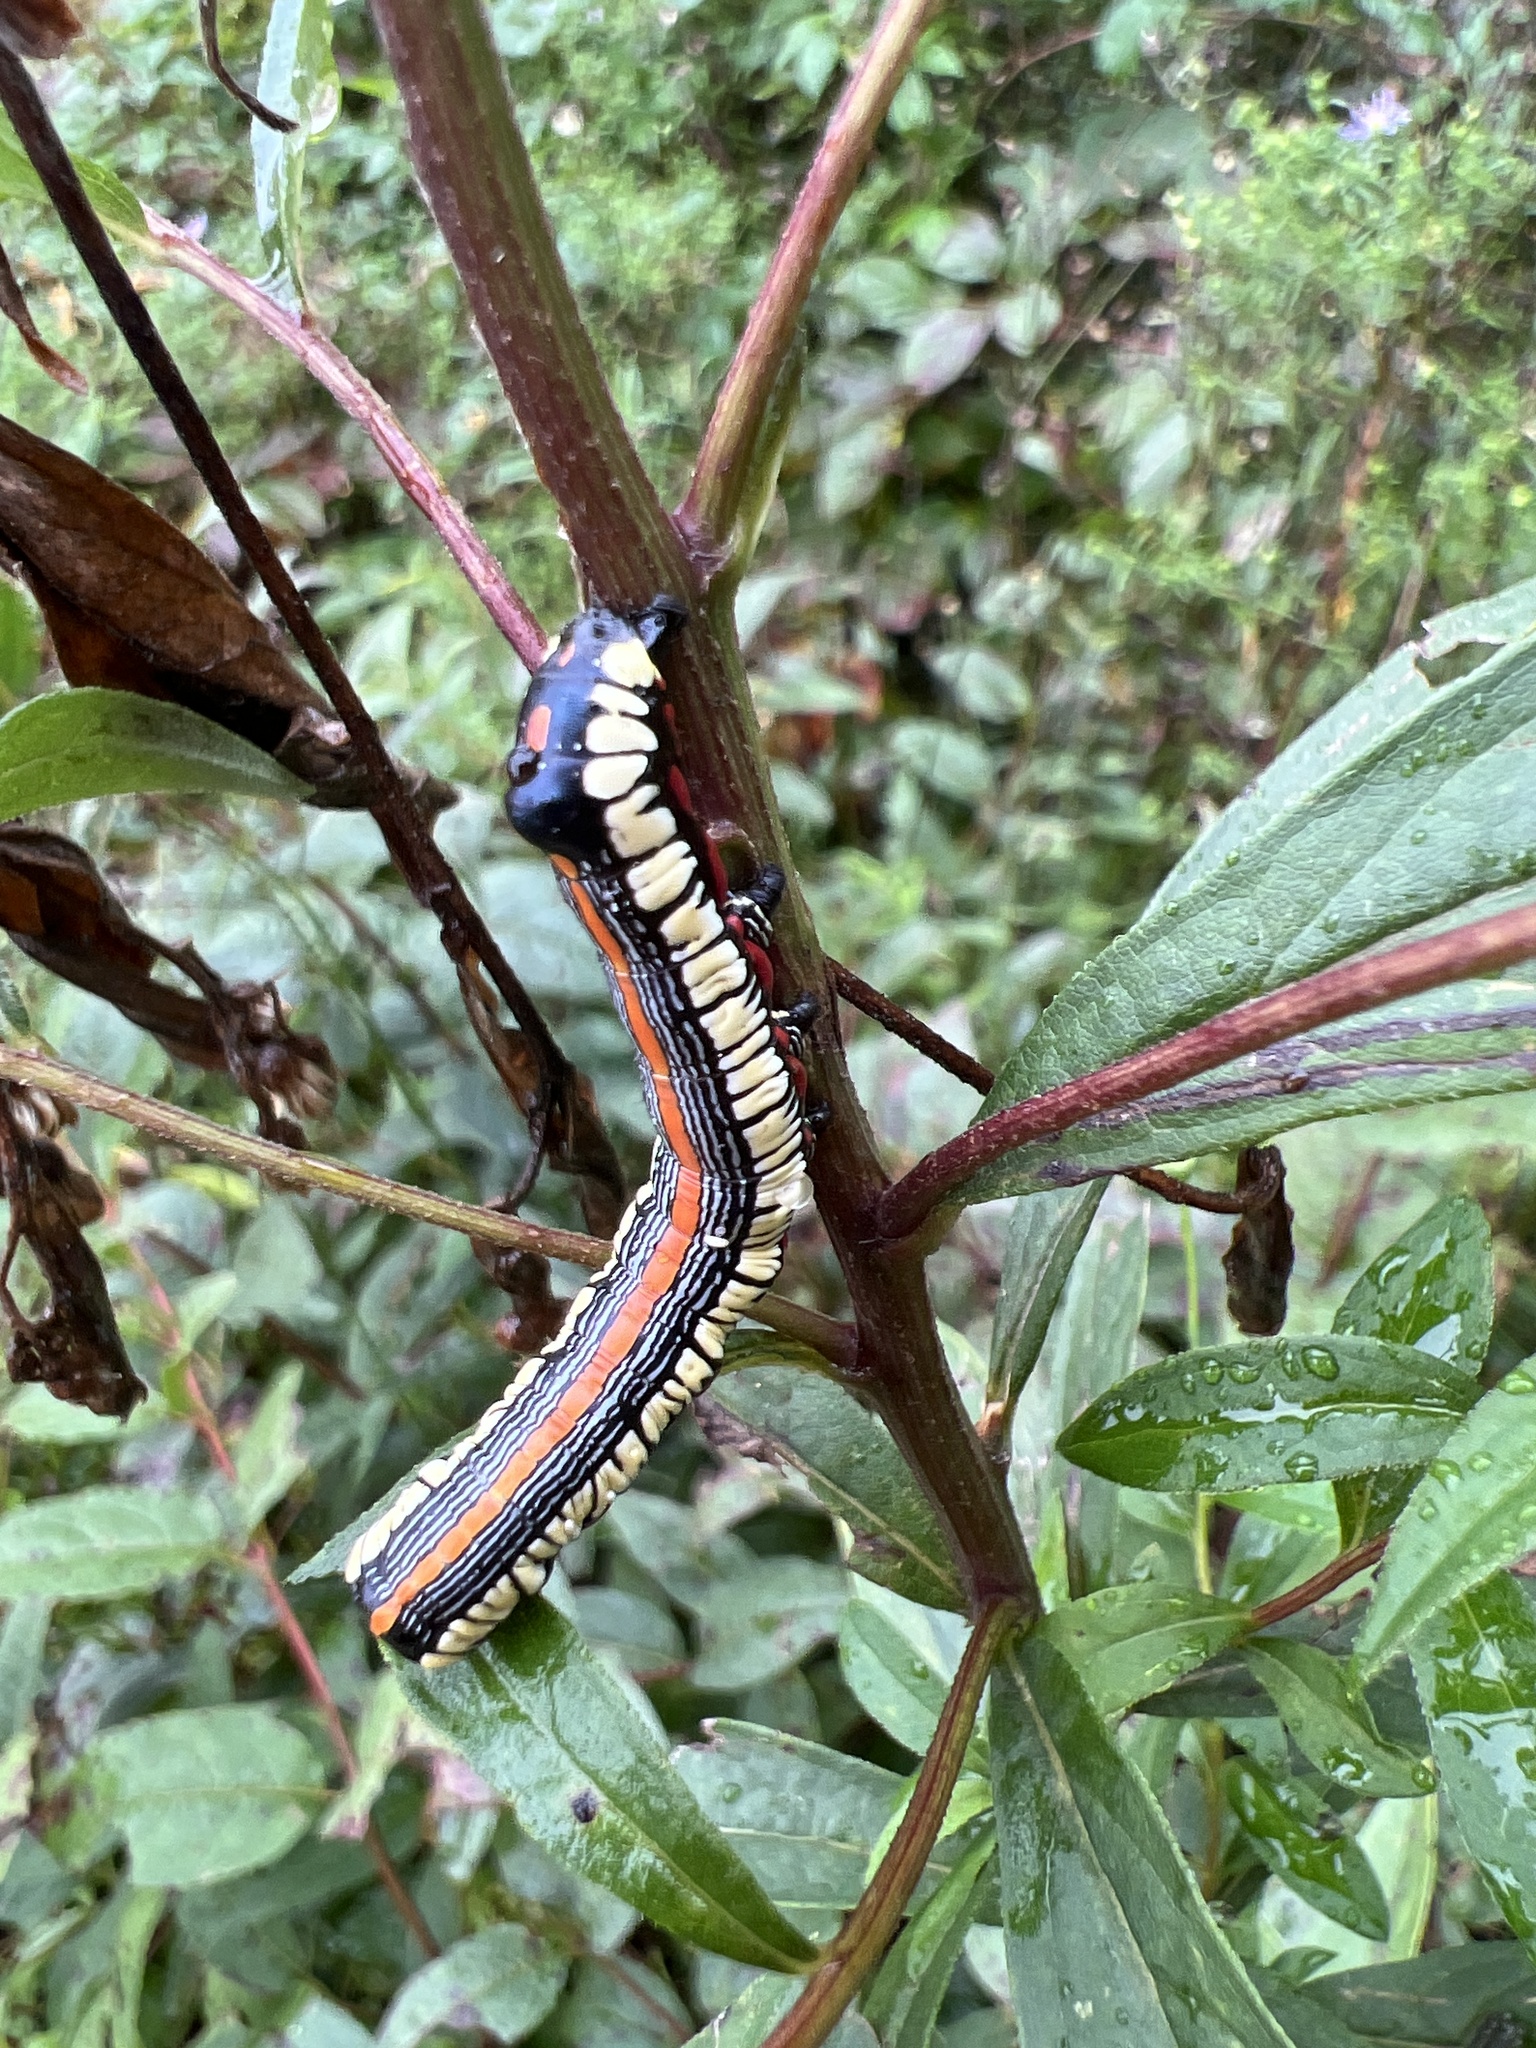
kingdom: Animalia
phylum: Arthropoda
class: Insecta
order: Lepidoptera
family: Noctuidae
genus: Cucullia
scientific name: Cucullia convexipennis
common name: Brown-hooded owlet
